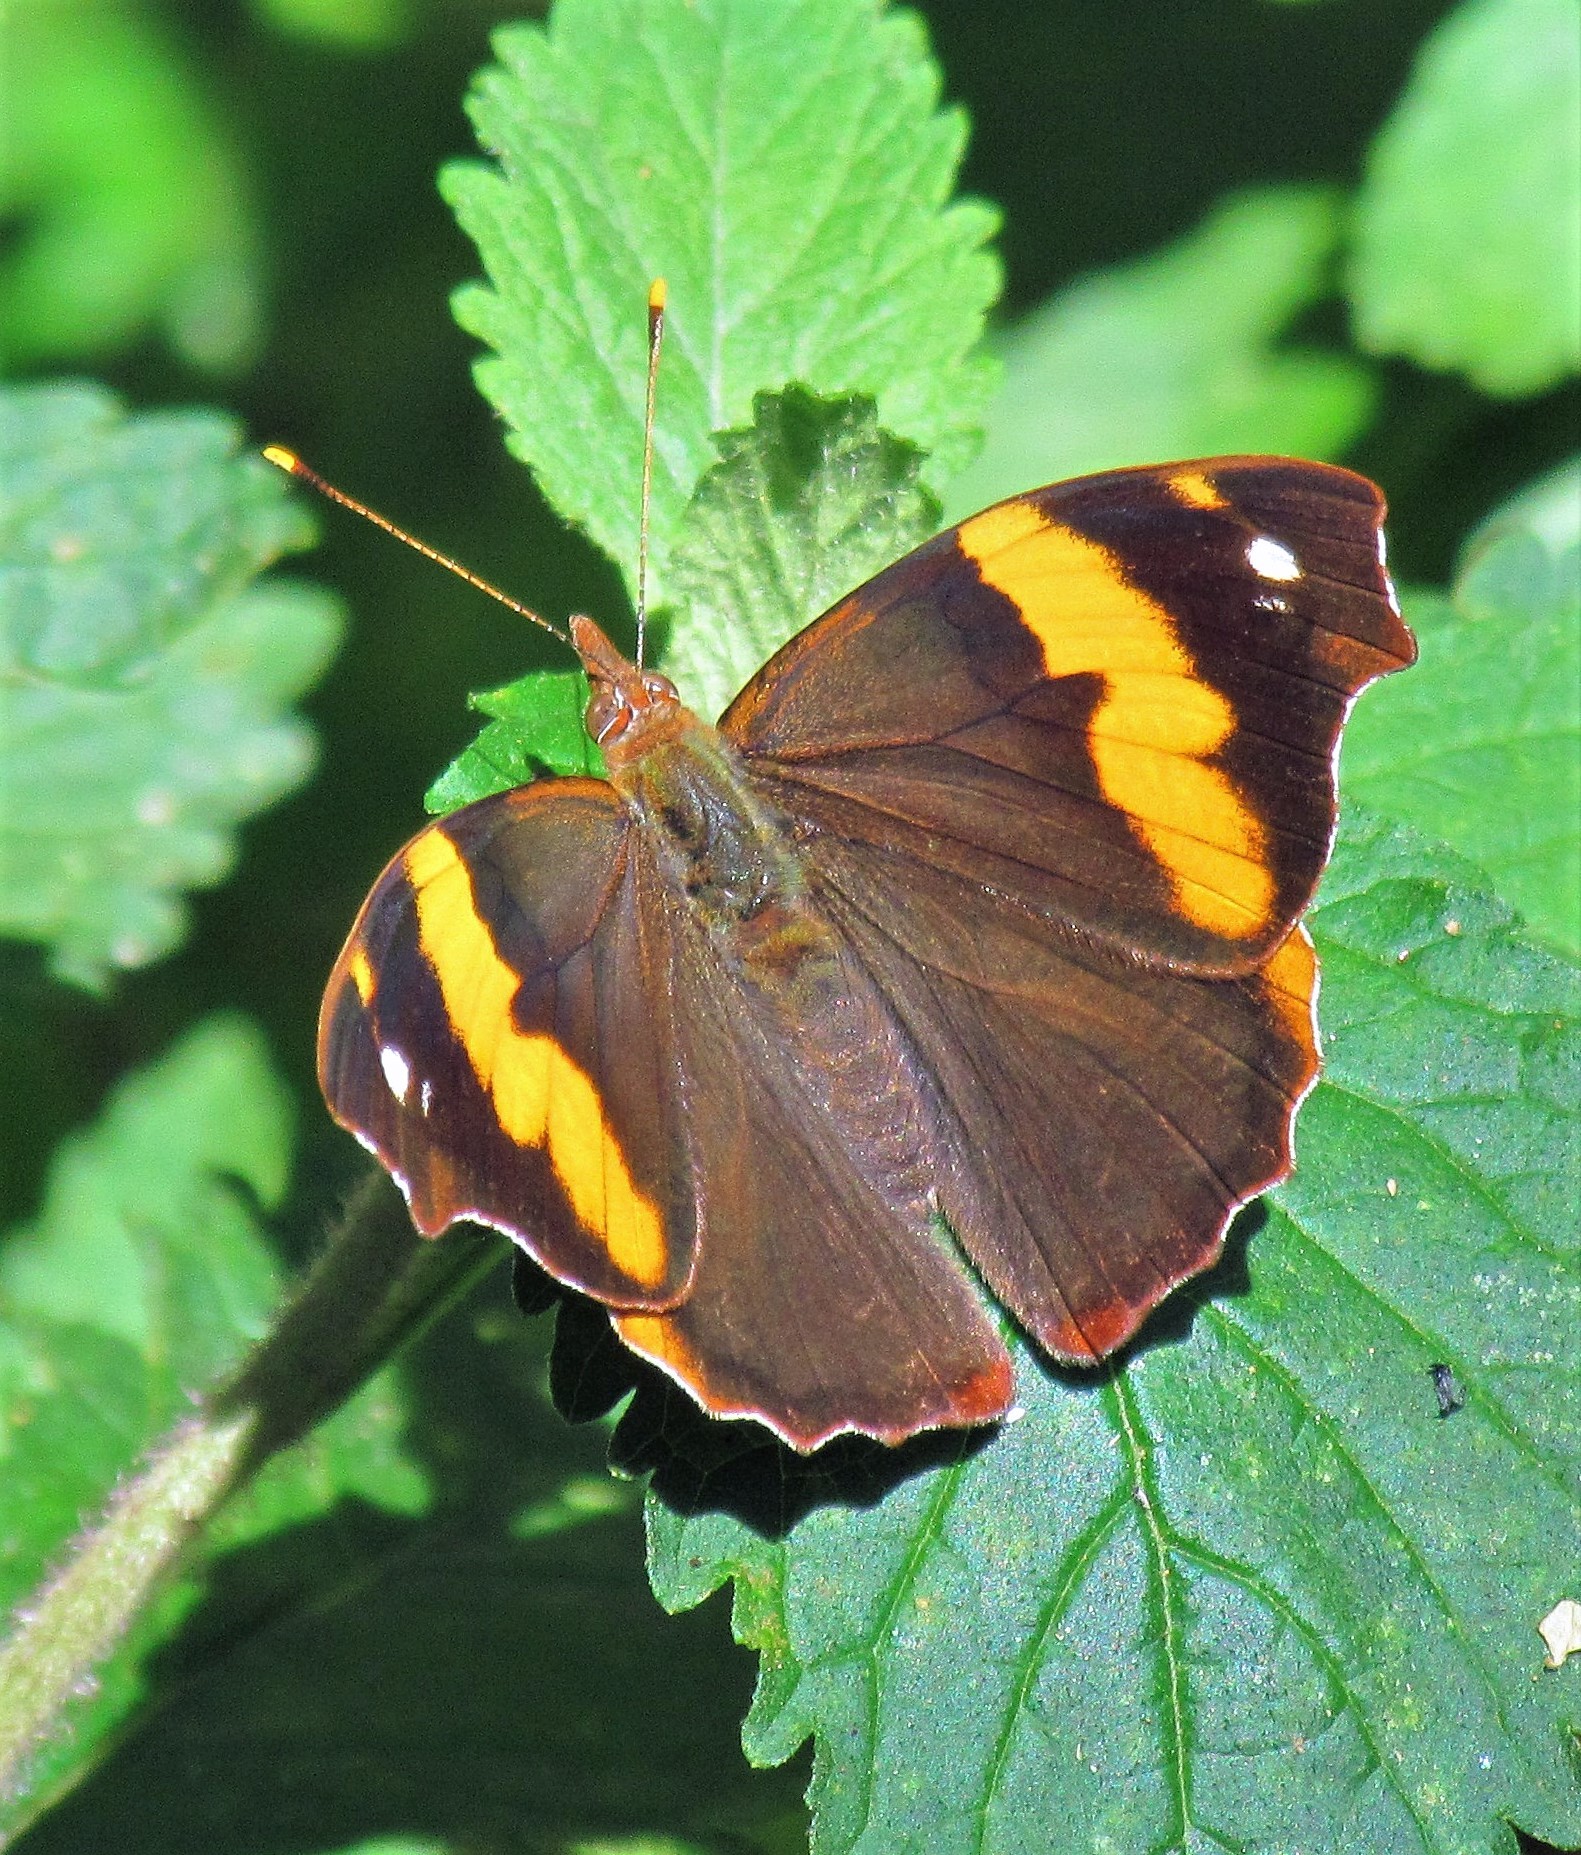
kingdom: Animalia
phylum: Arthropoda
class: Insecta
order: Lepidoptera
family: Nymphalidae
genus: Epiphile
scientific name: Epiphile orea
